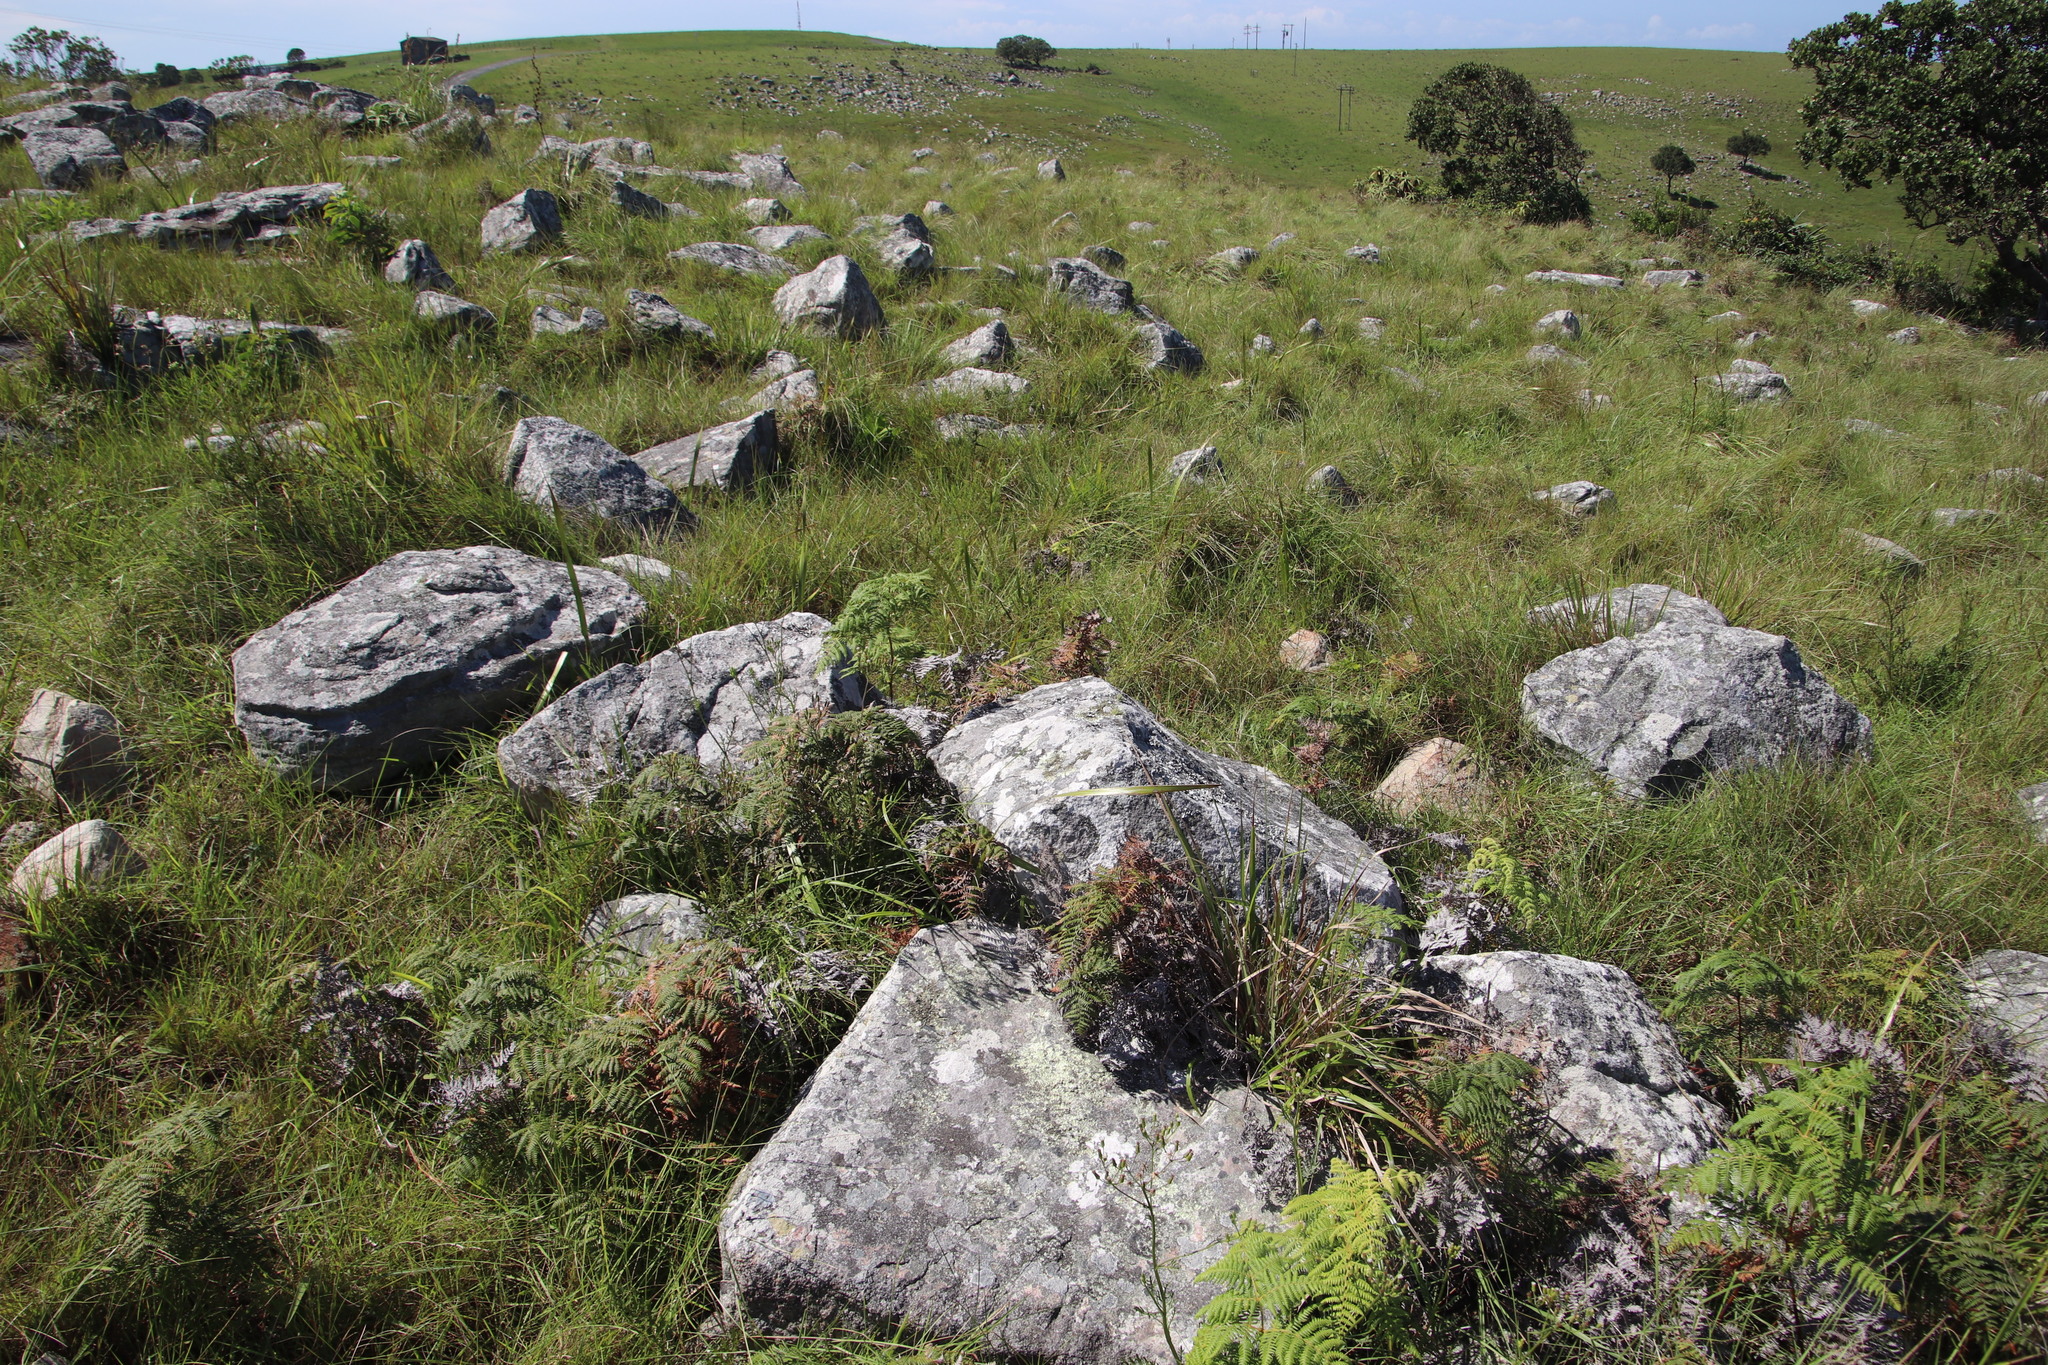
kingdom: Plantae
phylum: Tracheophyta
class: Polypodiopsida
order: Polypodiales
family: Dennstaedtiaceae
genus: Pteridium
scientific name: Pteridium aquilinum
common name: Bracken
